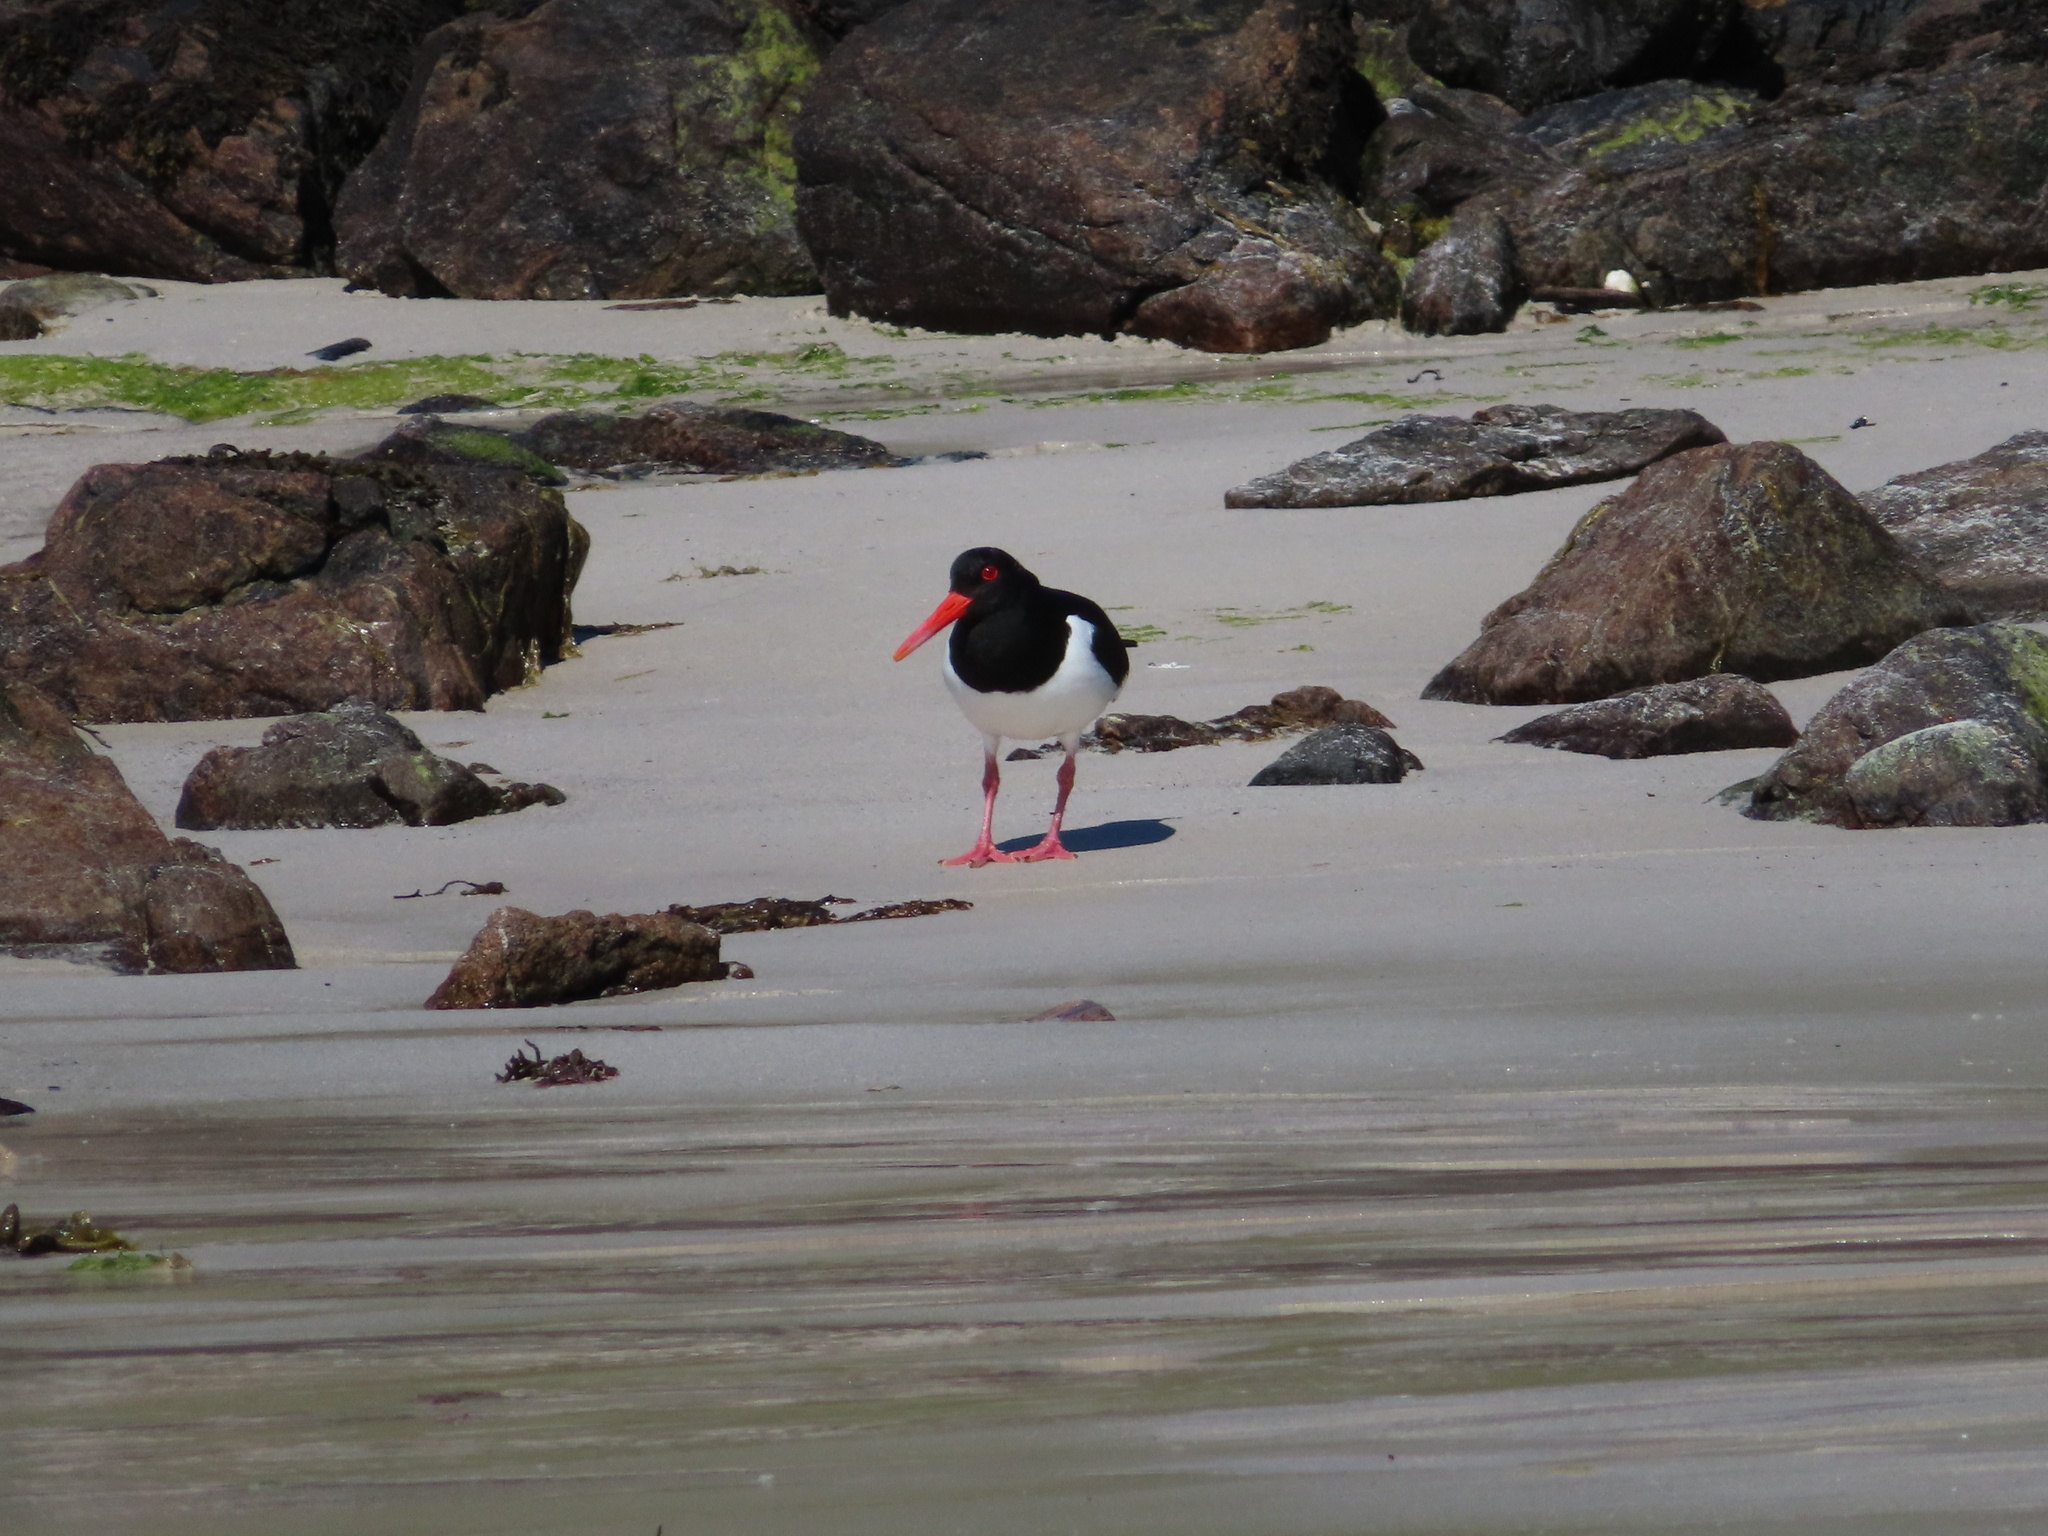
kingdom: Animalia
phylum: Chordata
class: Aves
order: Charadriiformes
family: Haematopodidae
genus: Haematopus
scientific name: Haematopus ostralegus
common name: Eurasian oystercatcher
